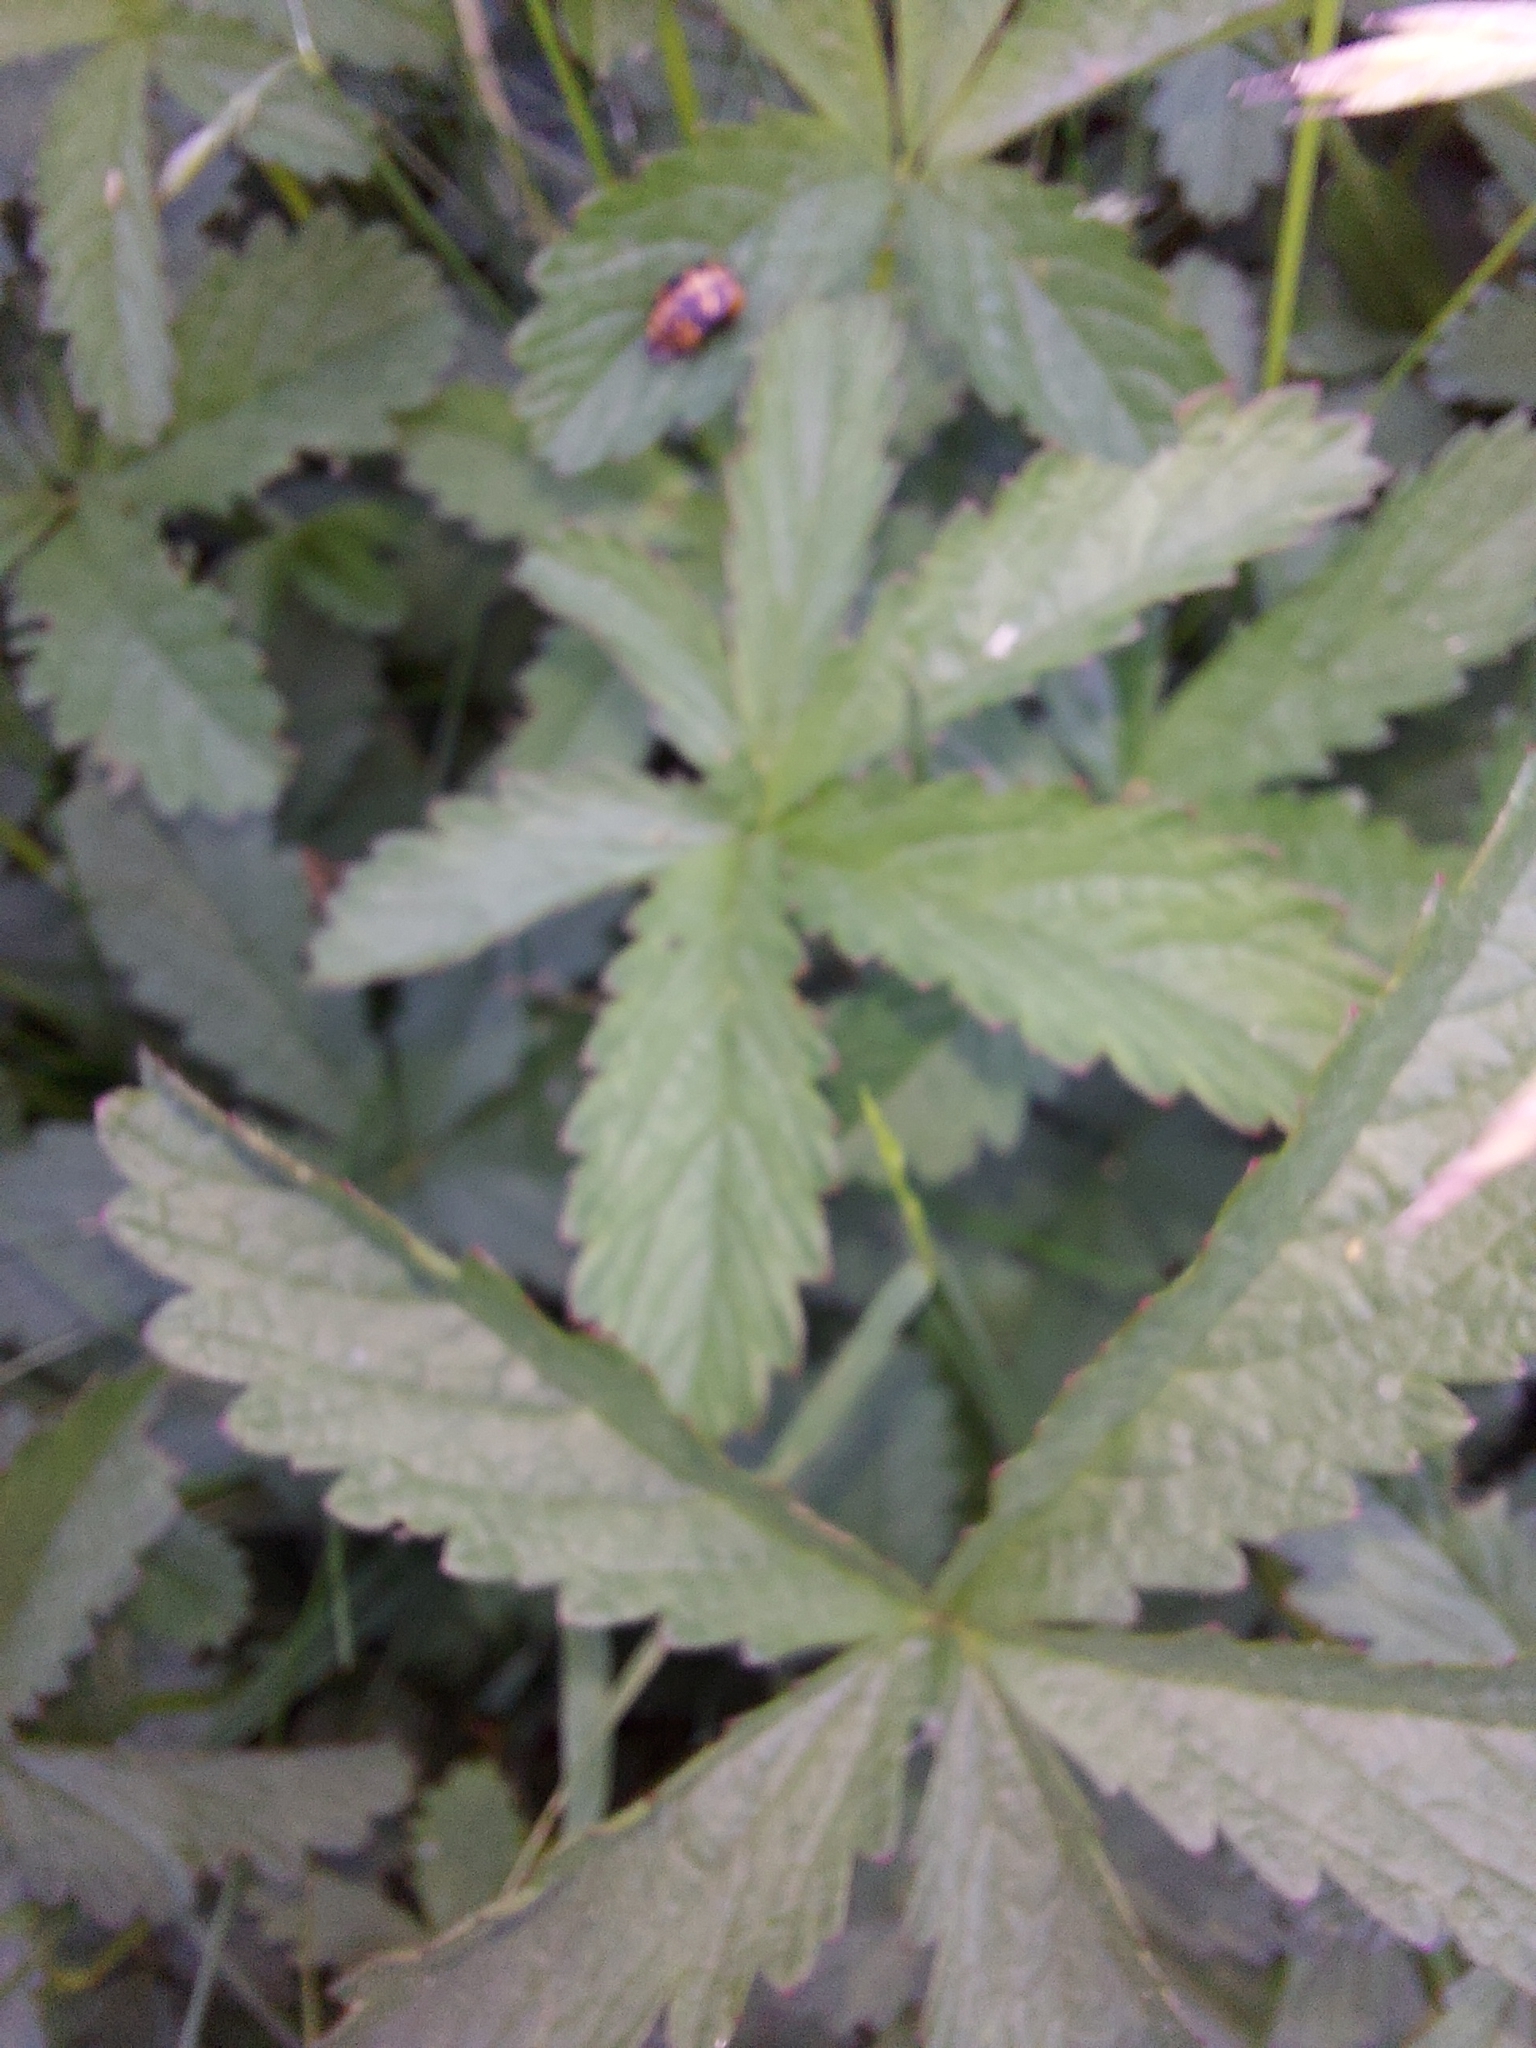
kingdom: Plantae
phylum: Tracheophyta
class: Magnoliopsida
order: Caryophyllales
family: Caryophyllaceae
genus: Silene
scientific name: Silene flos-cuculi
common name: Ragged-robin
